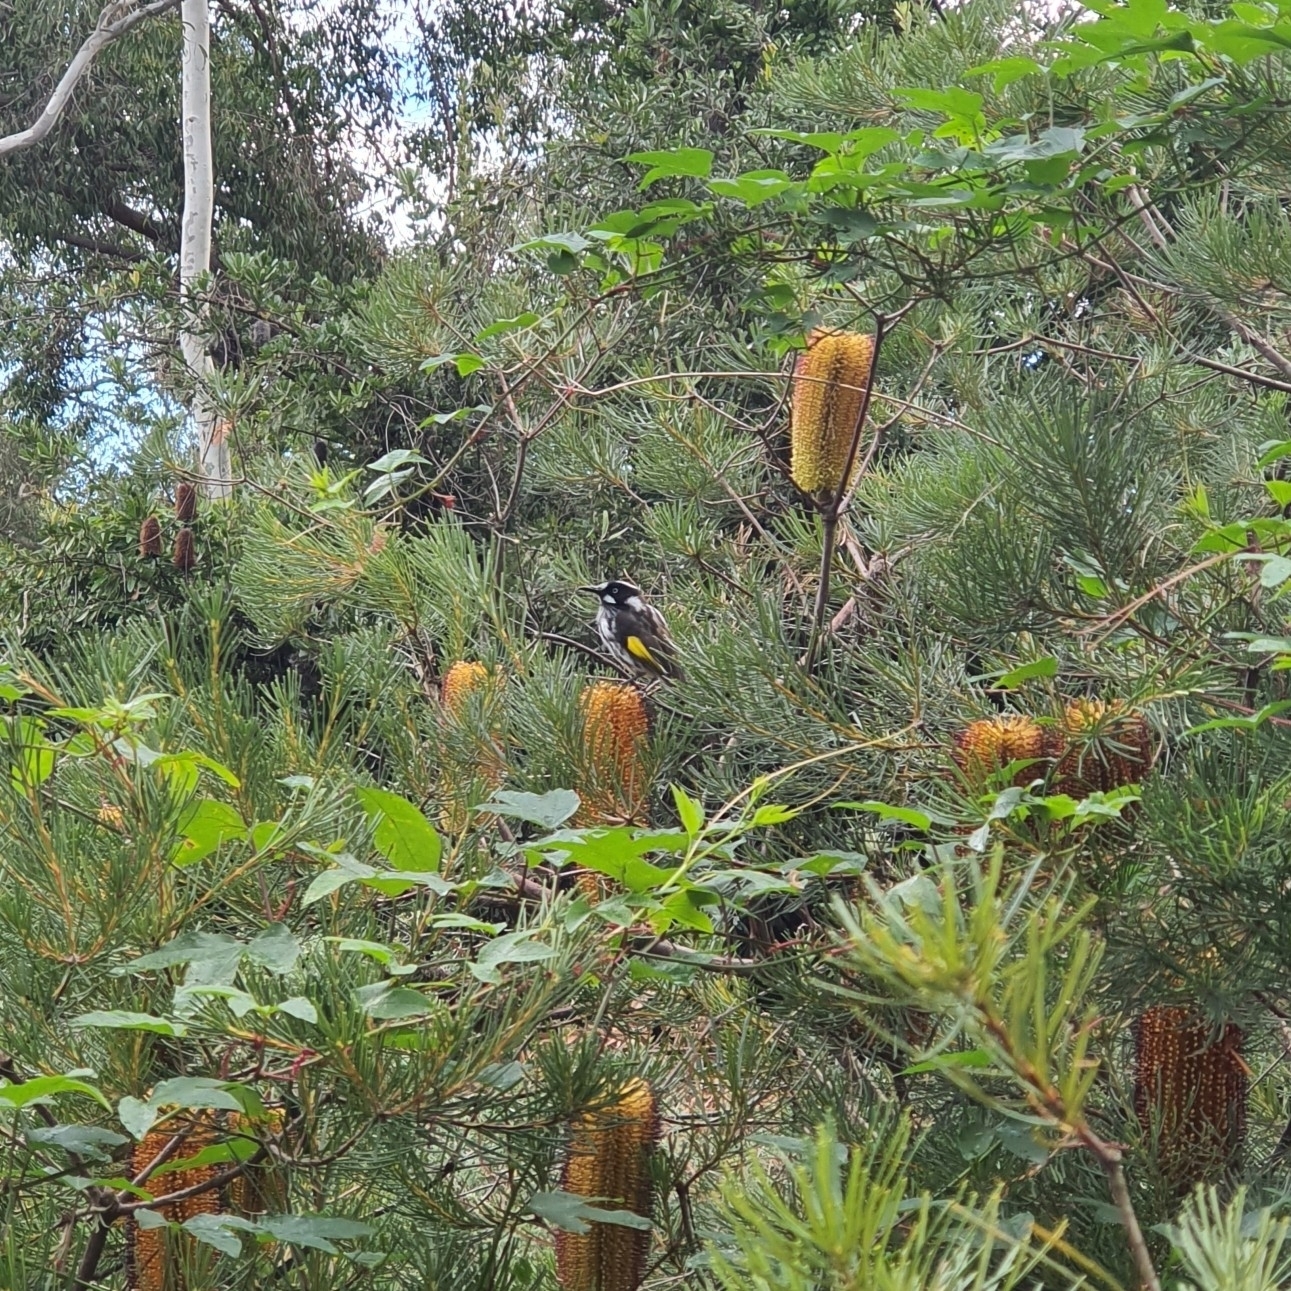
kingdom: Animalia
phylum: Chordata
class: Aves
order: Passeriformes
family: Meliphagidae
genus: Phylidonyris
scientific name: Phylidonyris novaehollandiae
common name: New holland honeyeater
